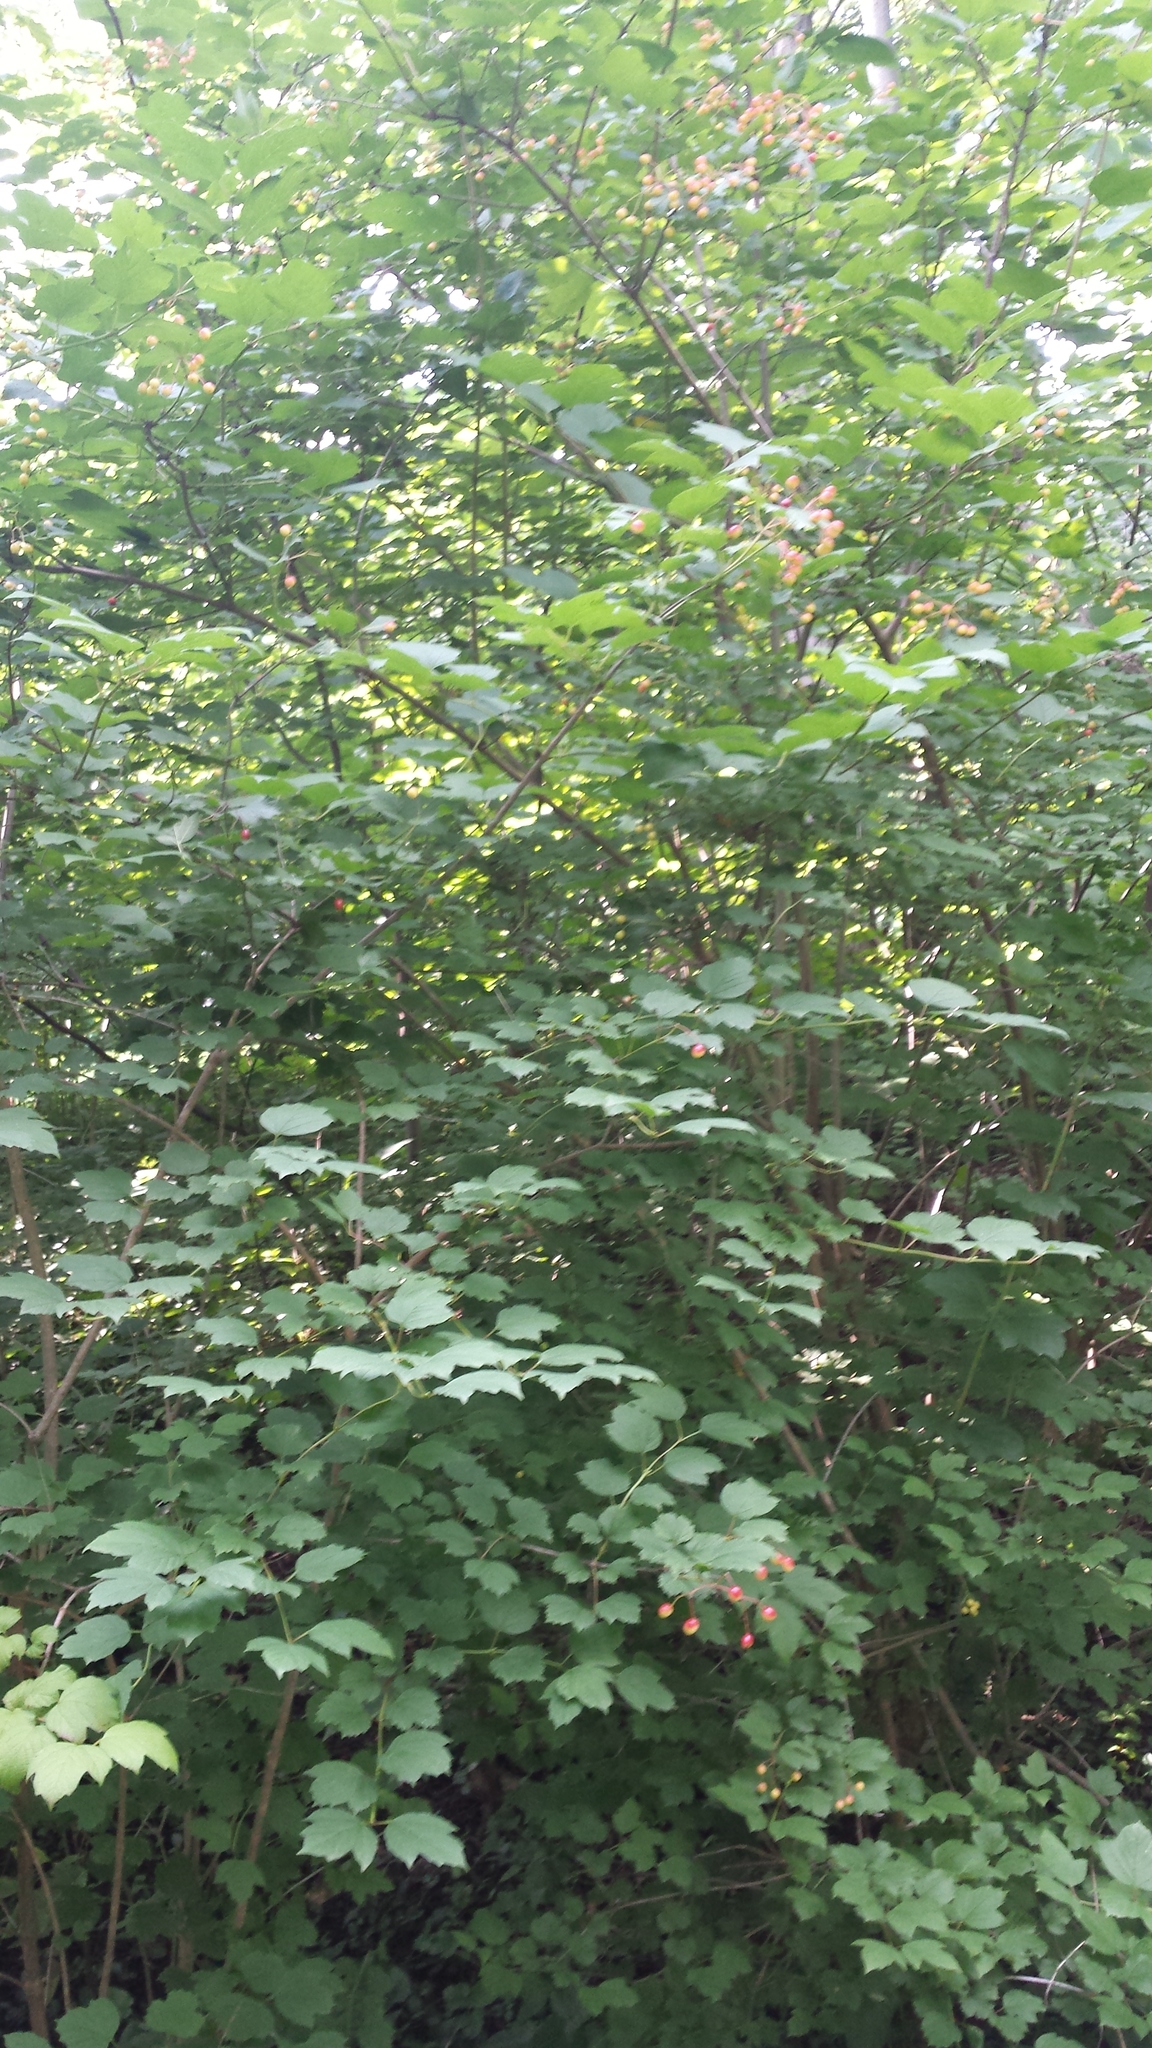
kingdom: Plantae
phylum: Tracheophyta
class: Magnoliopsida
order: Dipsacales
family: Viburnaceae
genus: Viburnum
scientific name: Viburnum acerifolium
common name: Dockmackie
